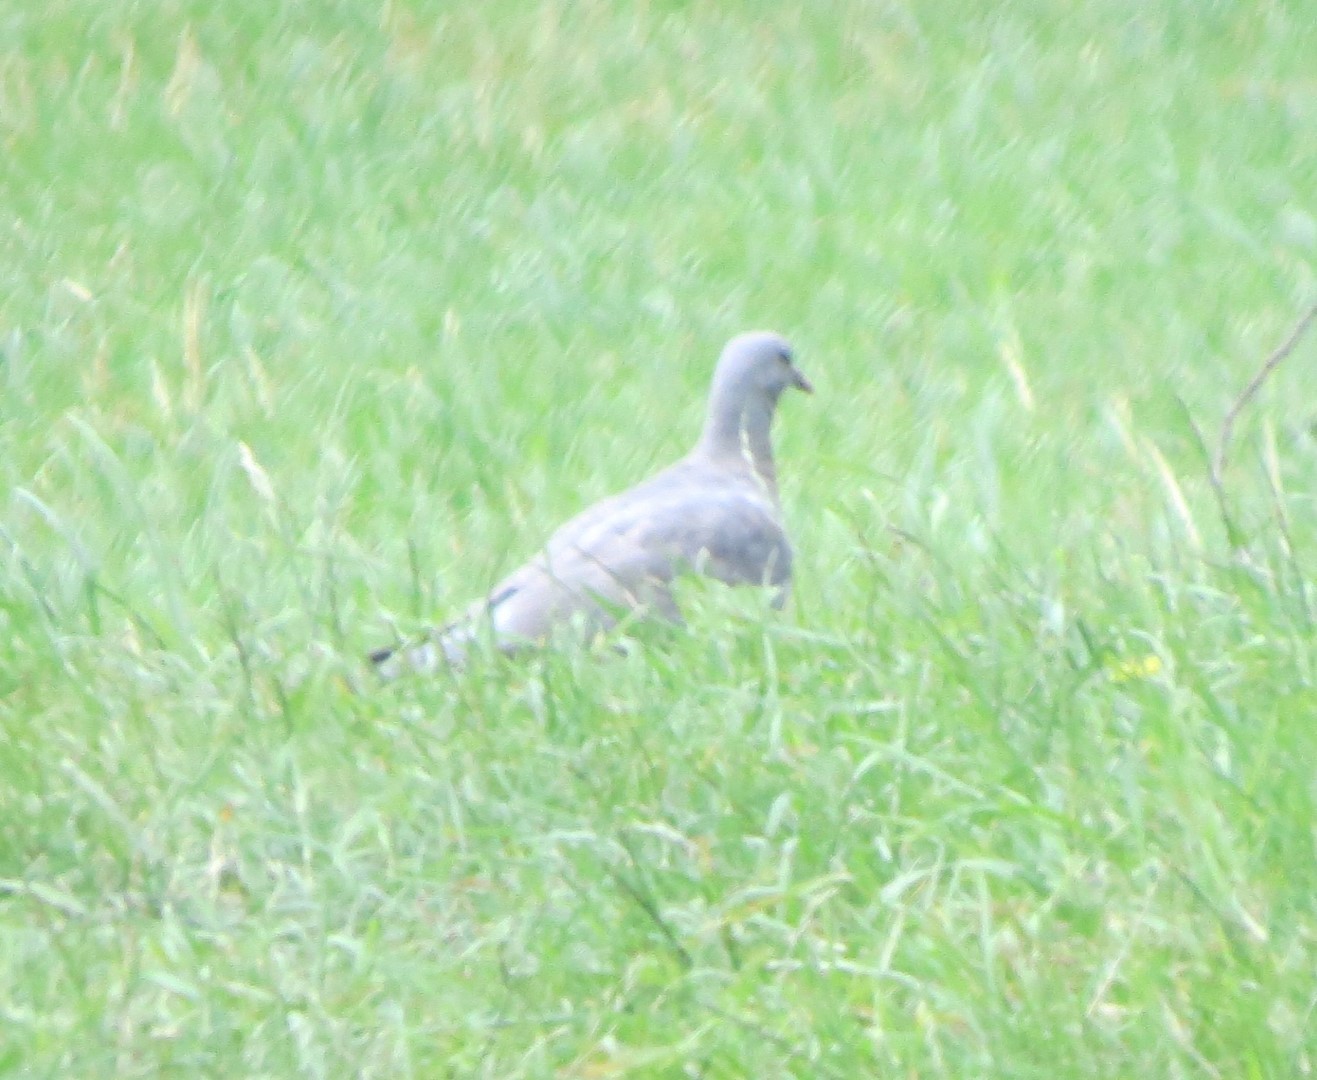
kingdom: Animalia
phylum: Chordata
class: Aves
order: Columbiformes
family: Columbidae
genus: Columba
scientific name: Columba palumbus
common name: Common wood pigeon
